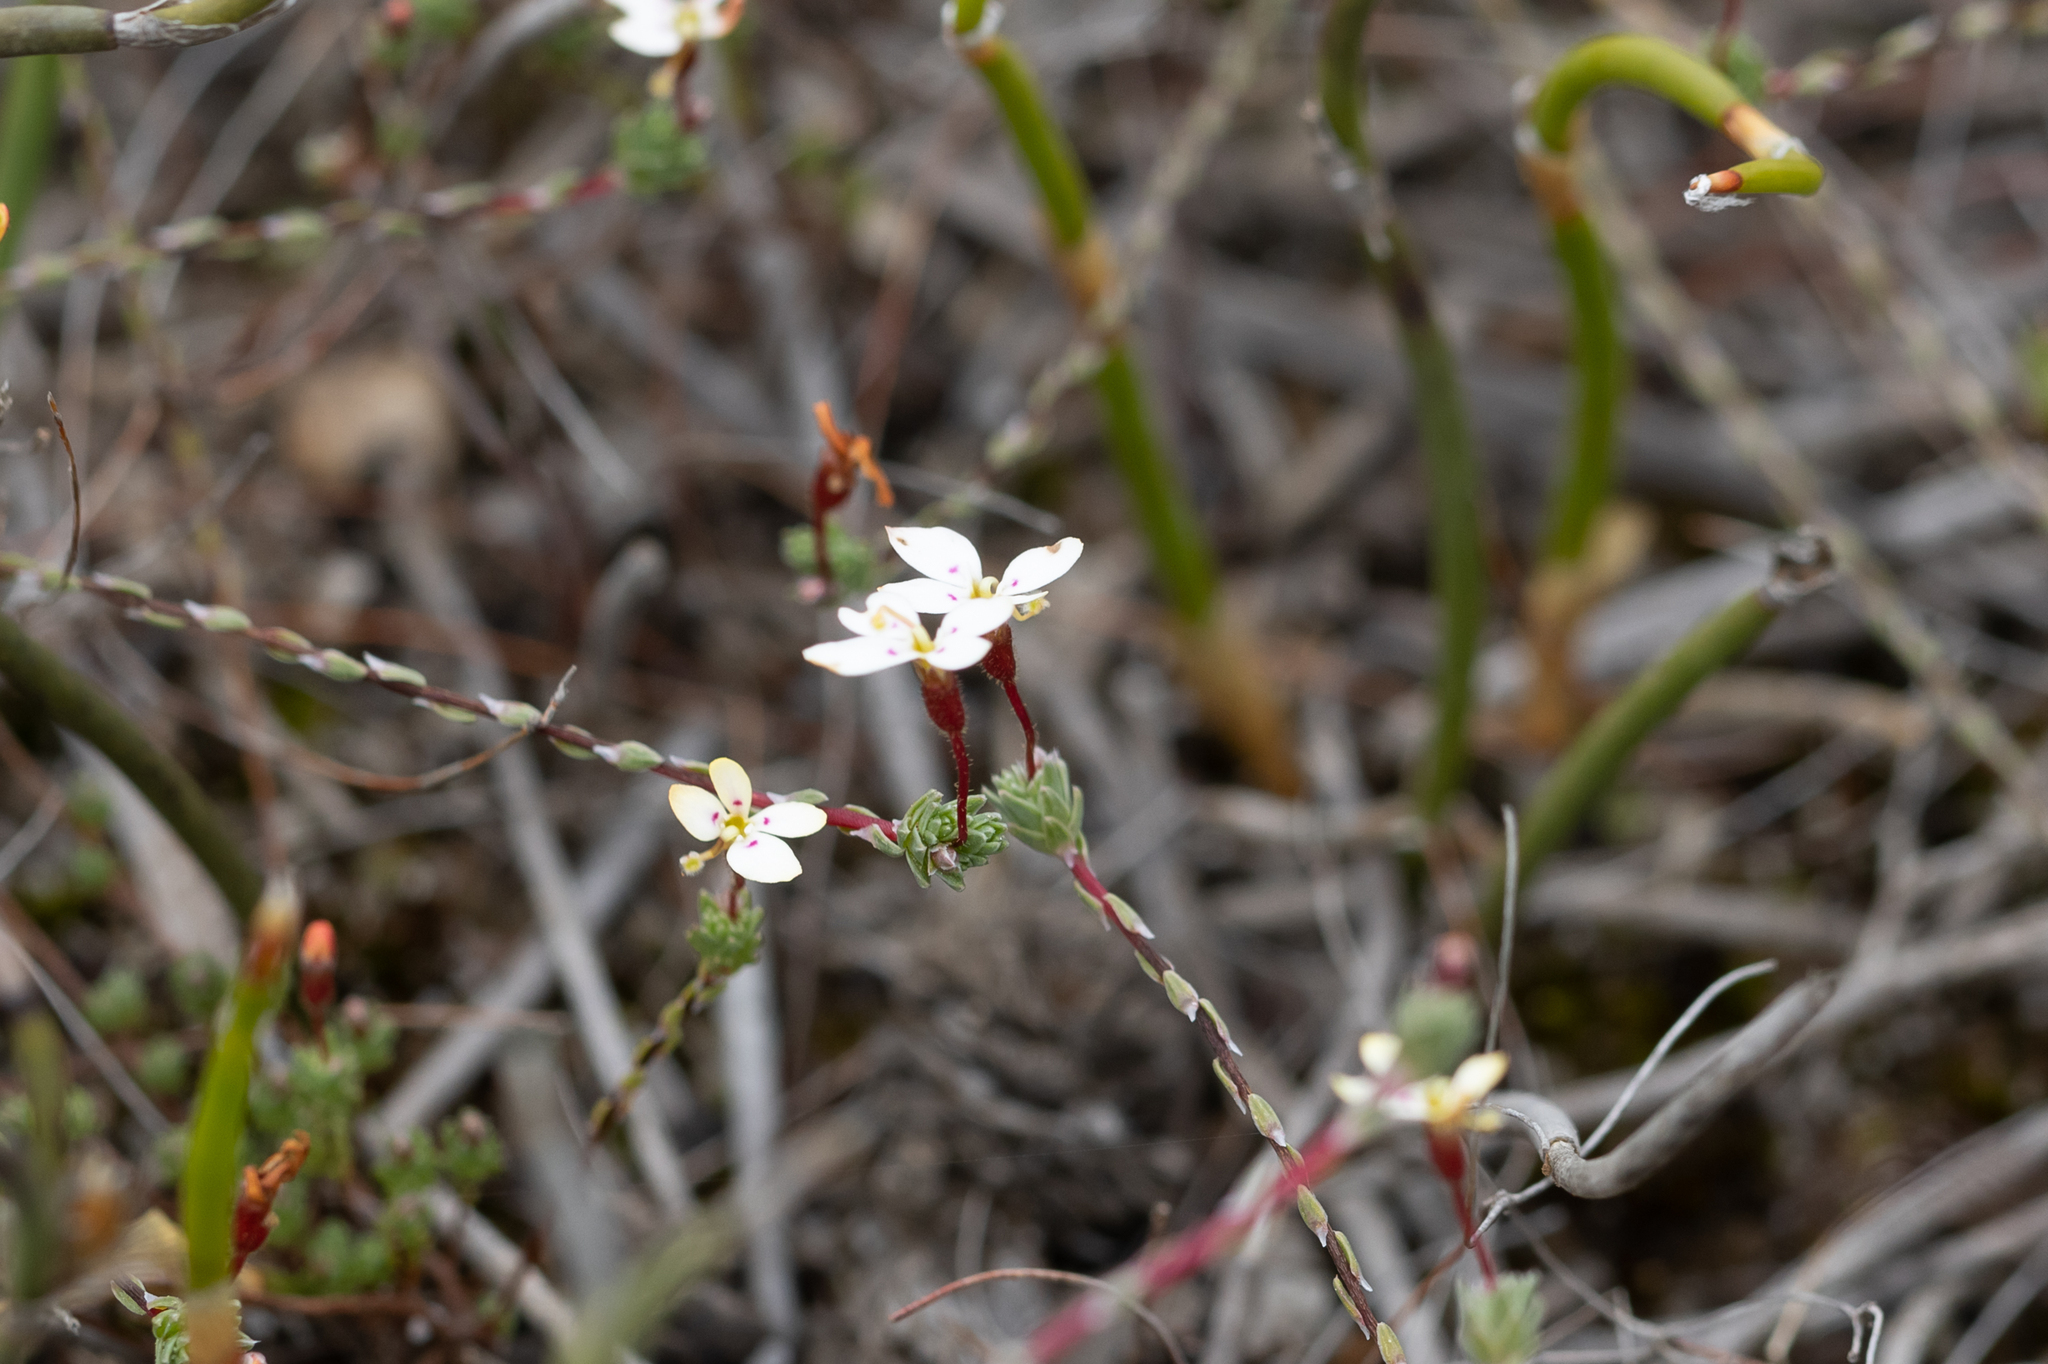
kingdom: Plantae
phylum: Tracheophyta
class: Magnoliopsida
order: Asterales
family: Stylidiaceae
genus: Stylidium
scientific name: Stylidium repens
